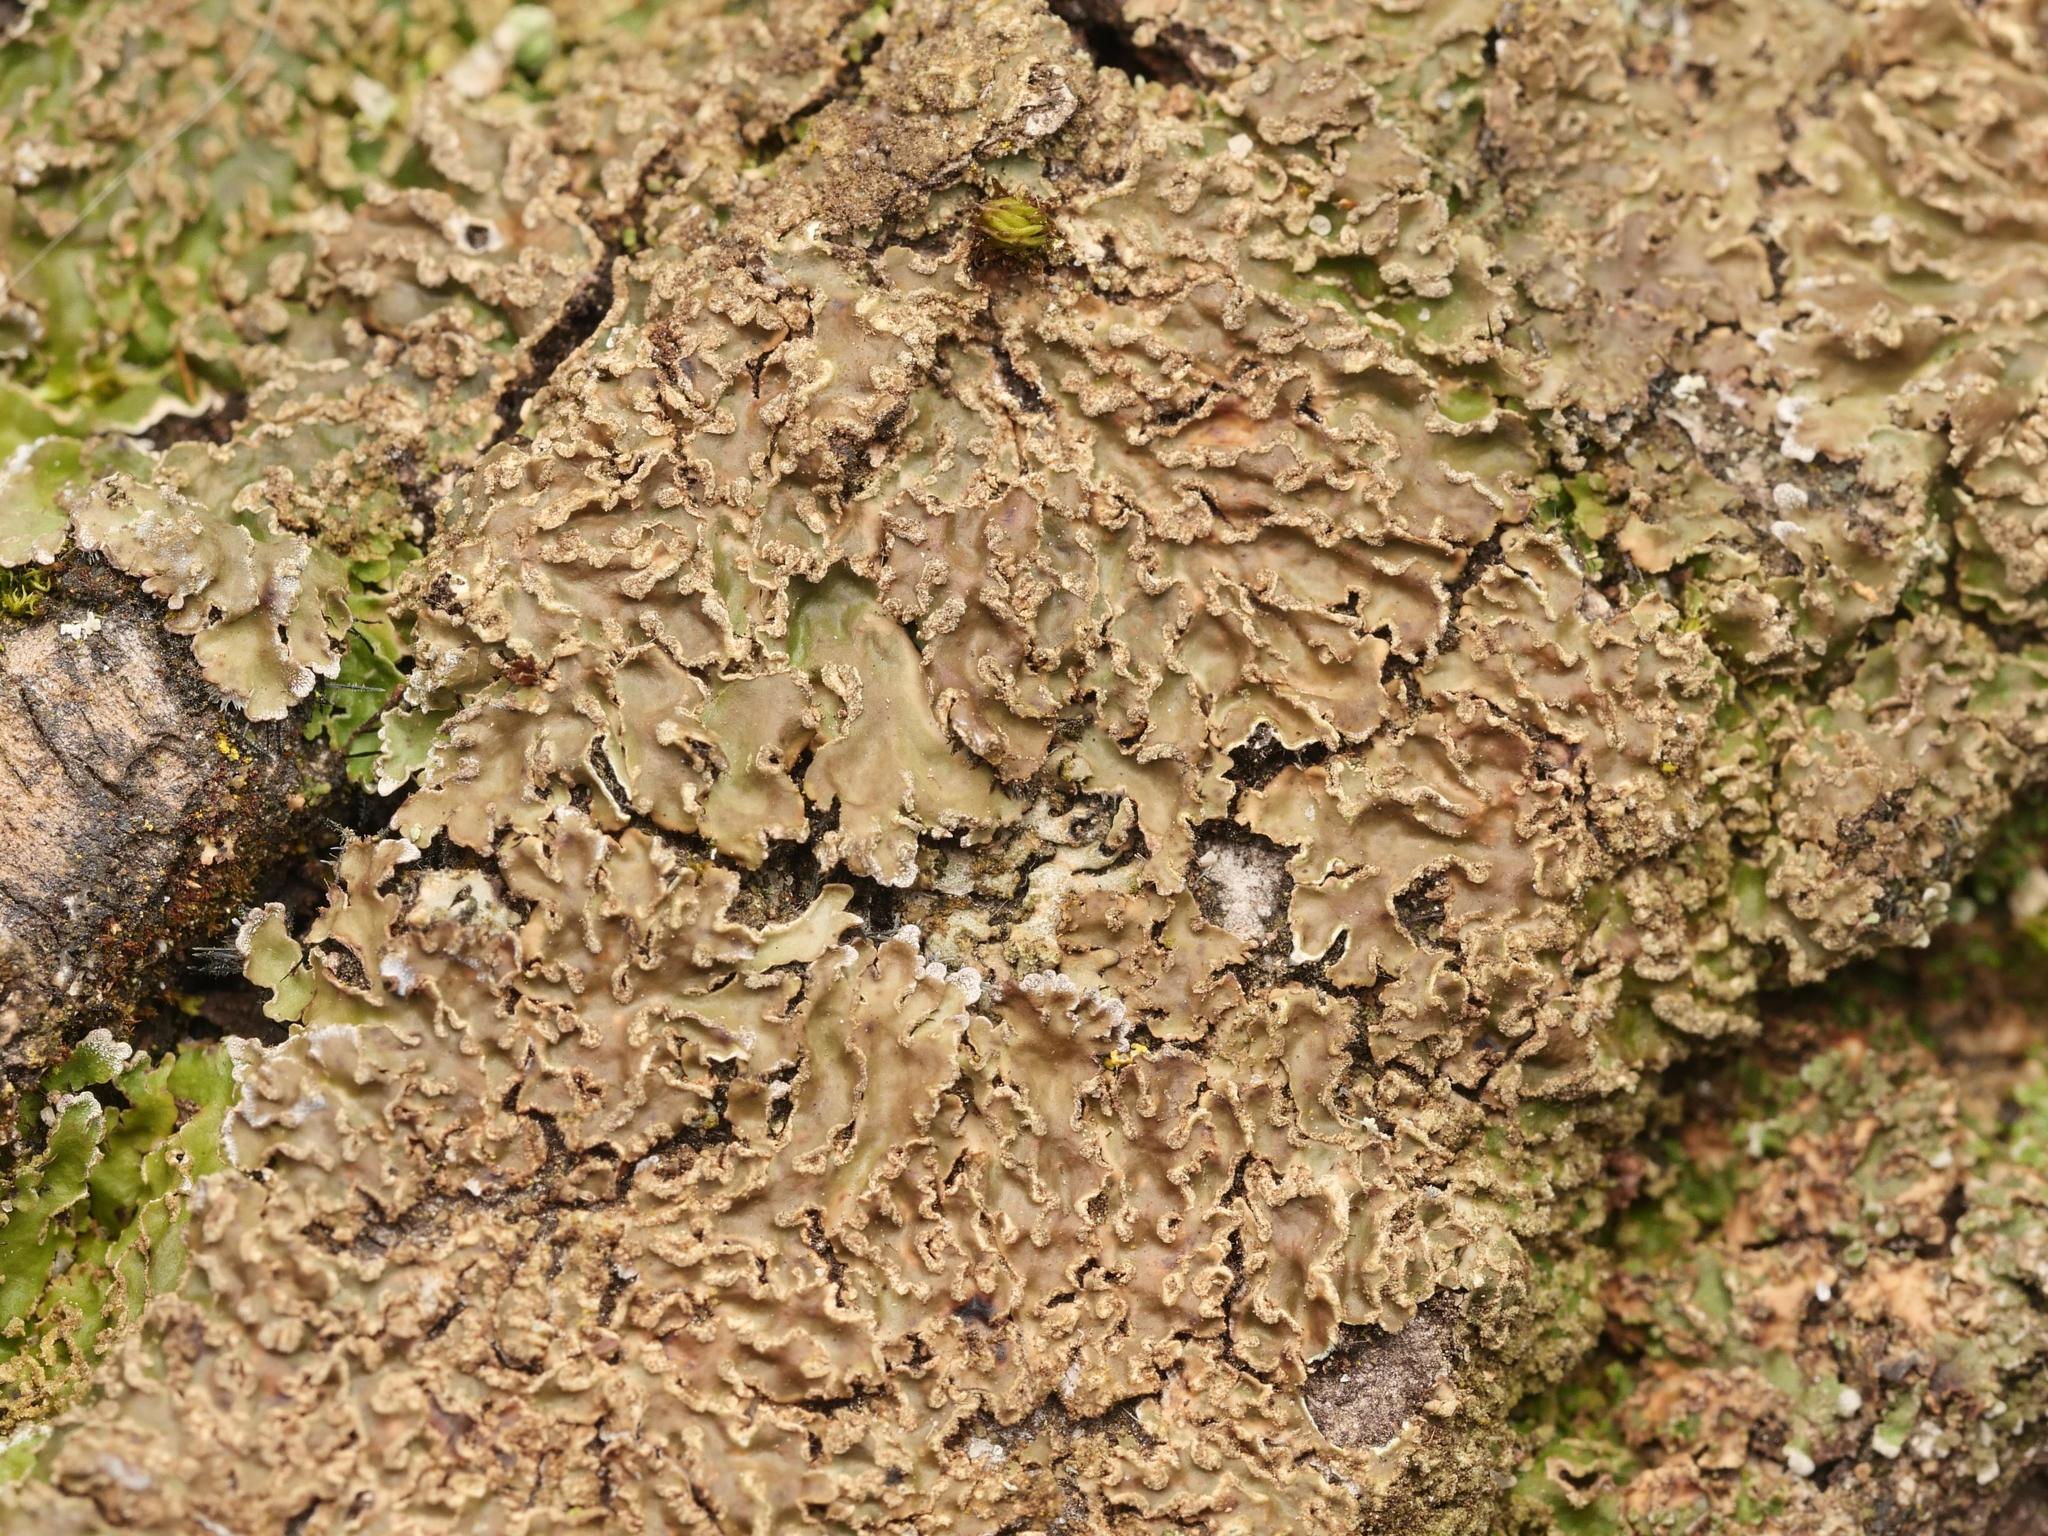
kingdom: Fungi
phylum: Ascomycota
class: Lecanoromycetes
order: Caliciales
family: Physciaceae
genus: Poeltonia
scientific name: Poeltonia grisea
